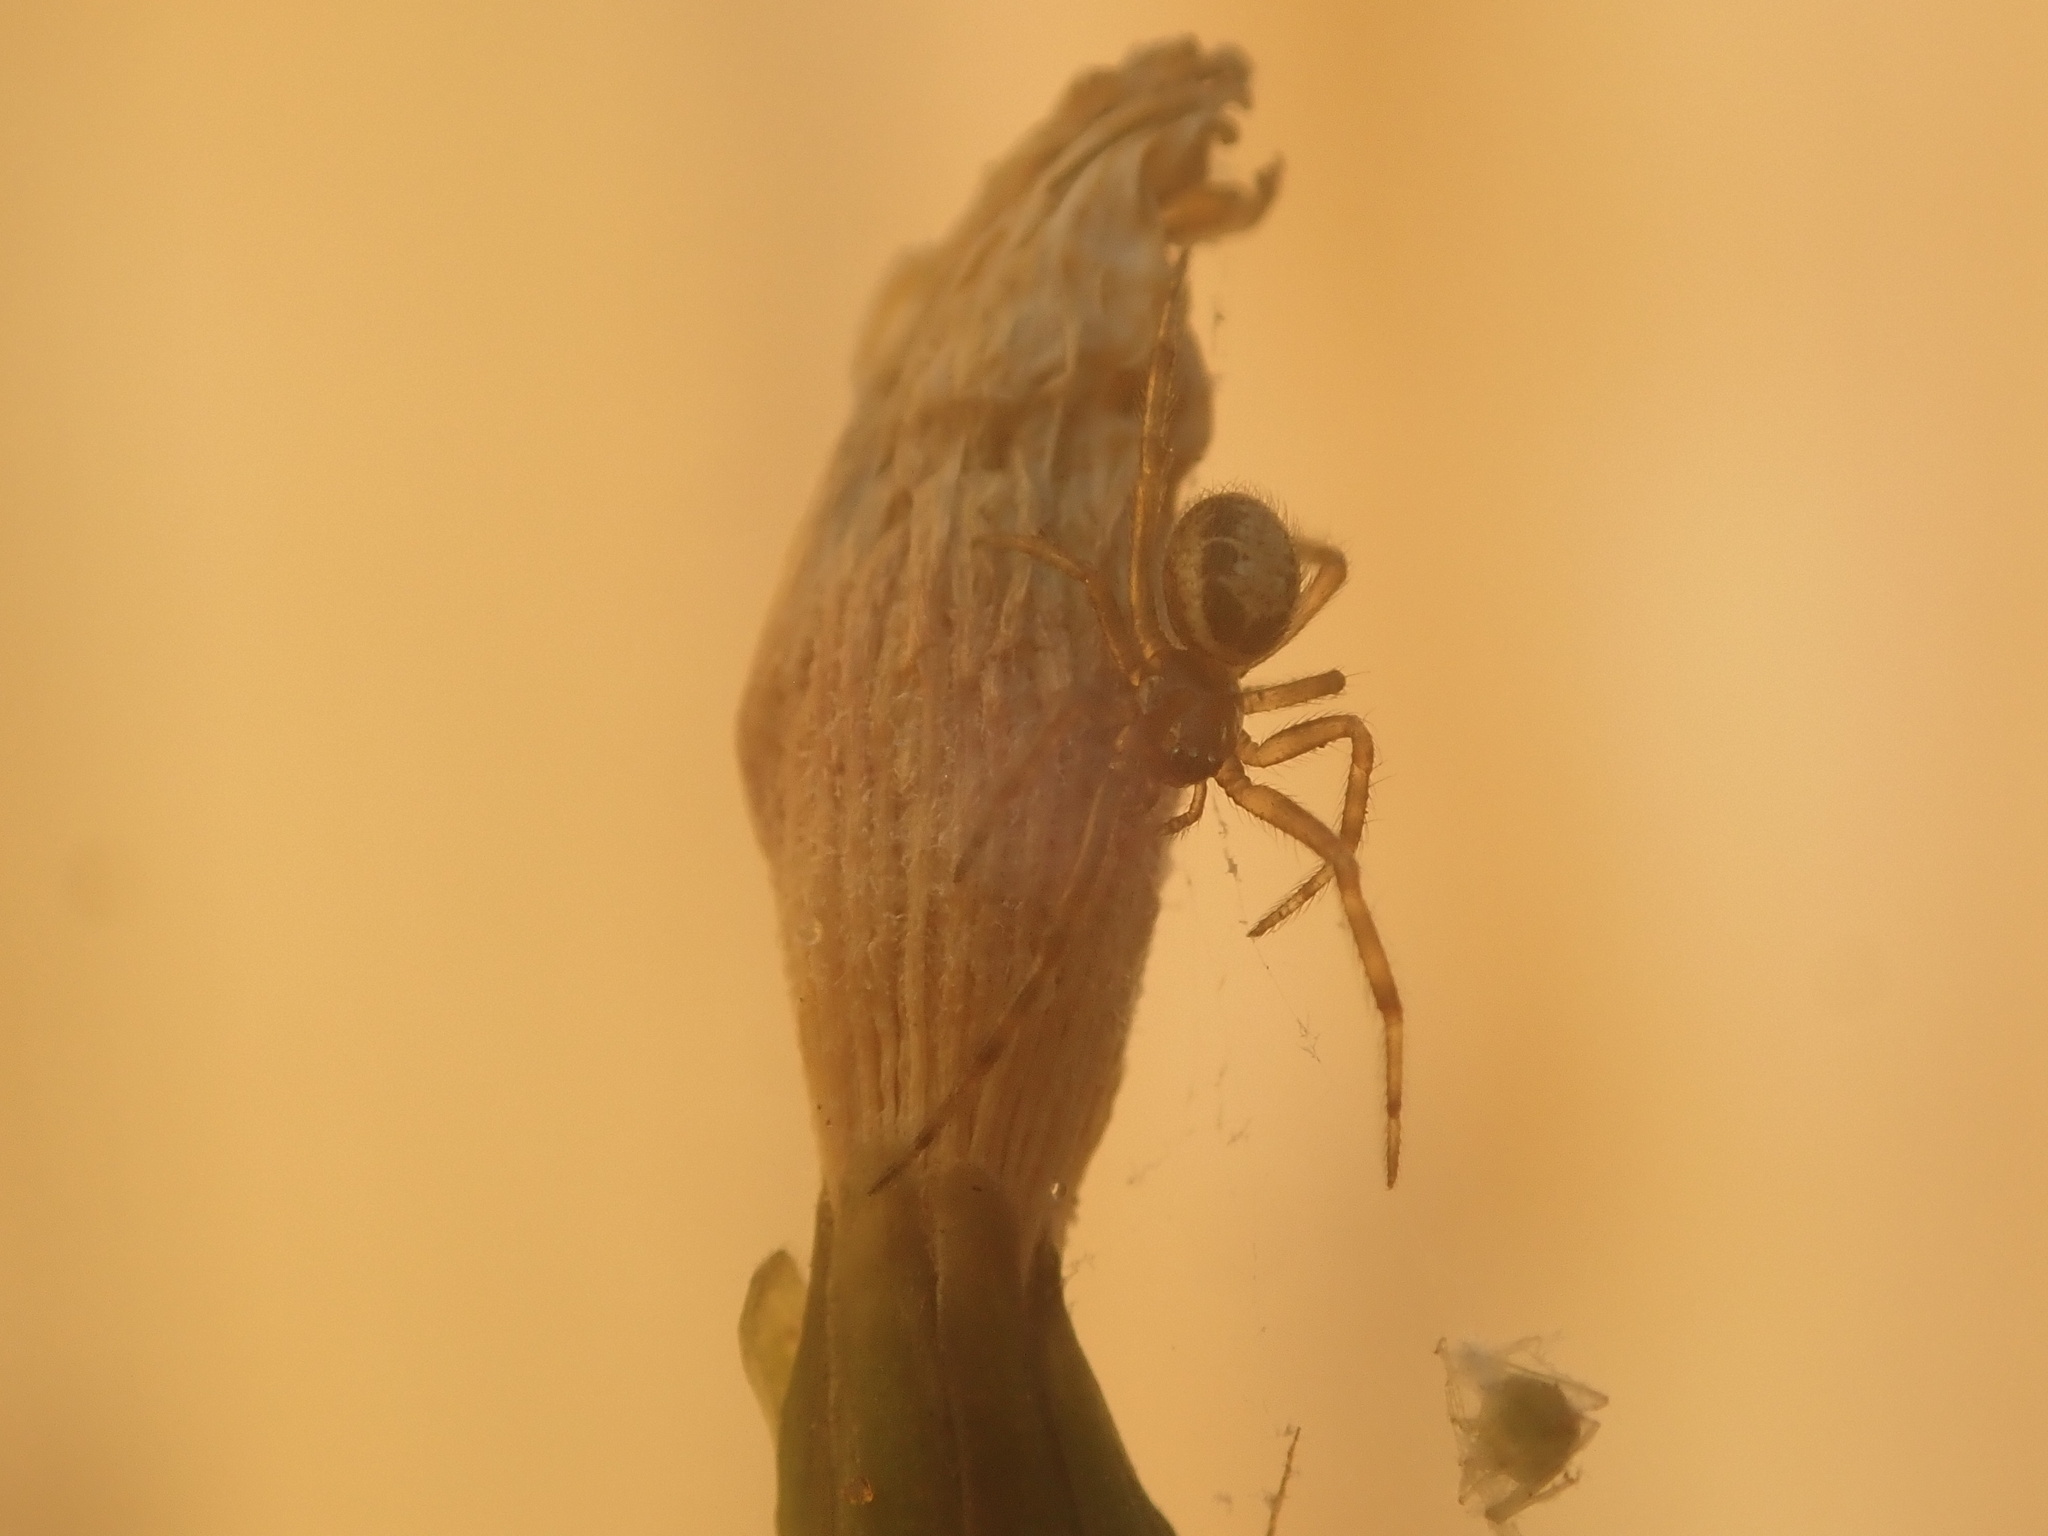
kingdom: Animalia
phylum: Arthropoda
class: Arachnida
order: Araneae
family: Theridiidae
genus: Steatoda
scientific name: Steatoda nobilis
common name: Cobweb weaver
